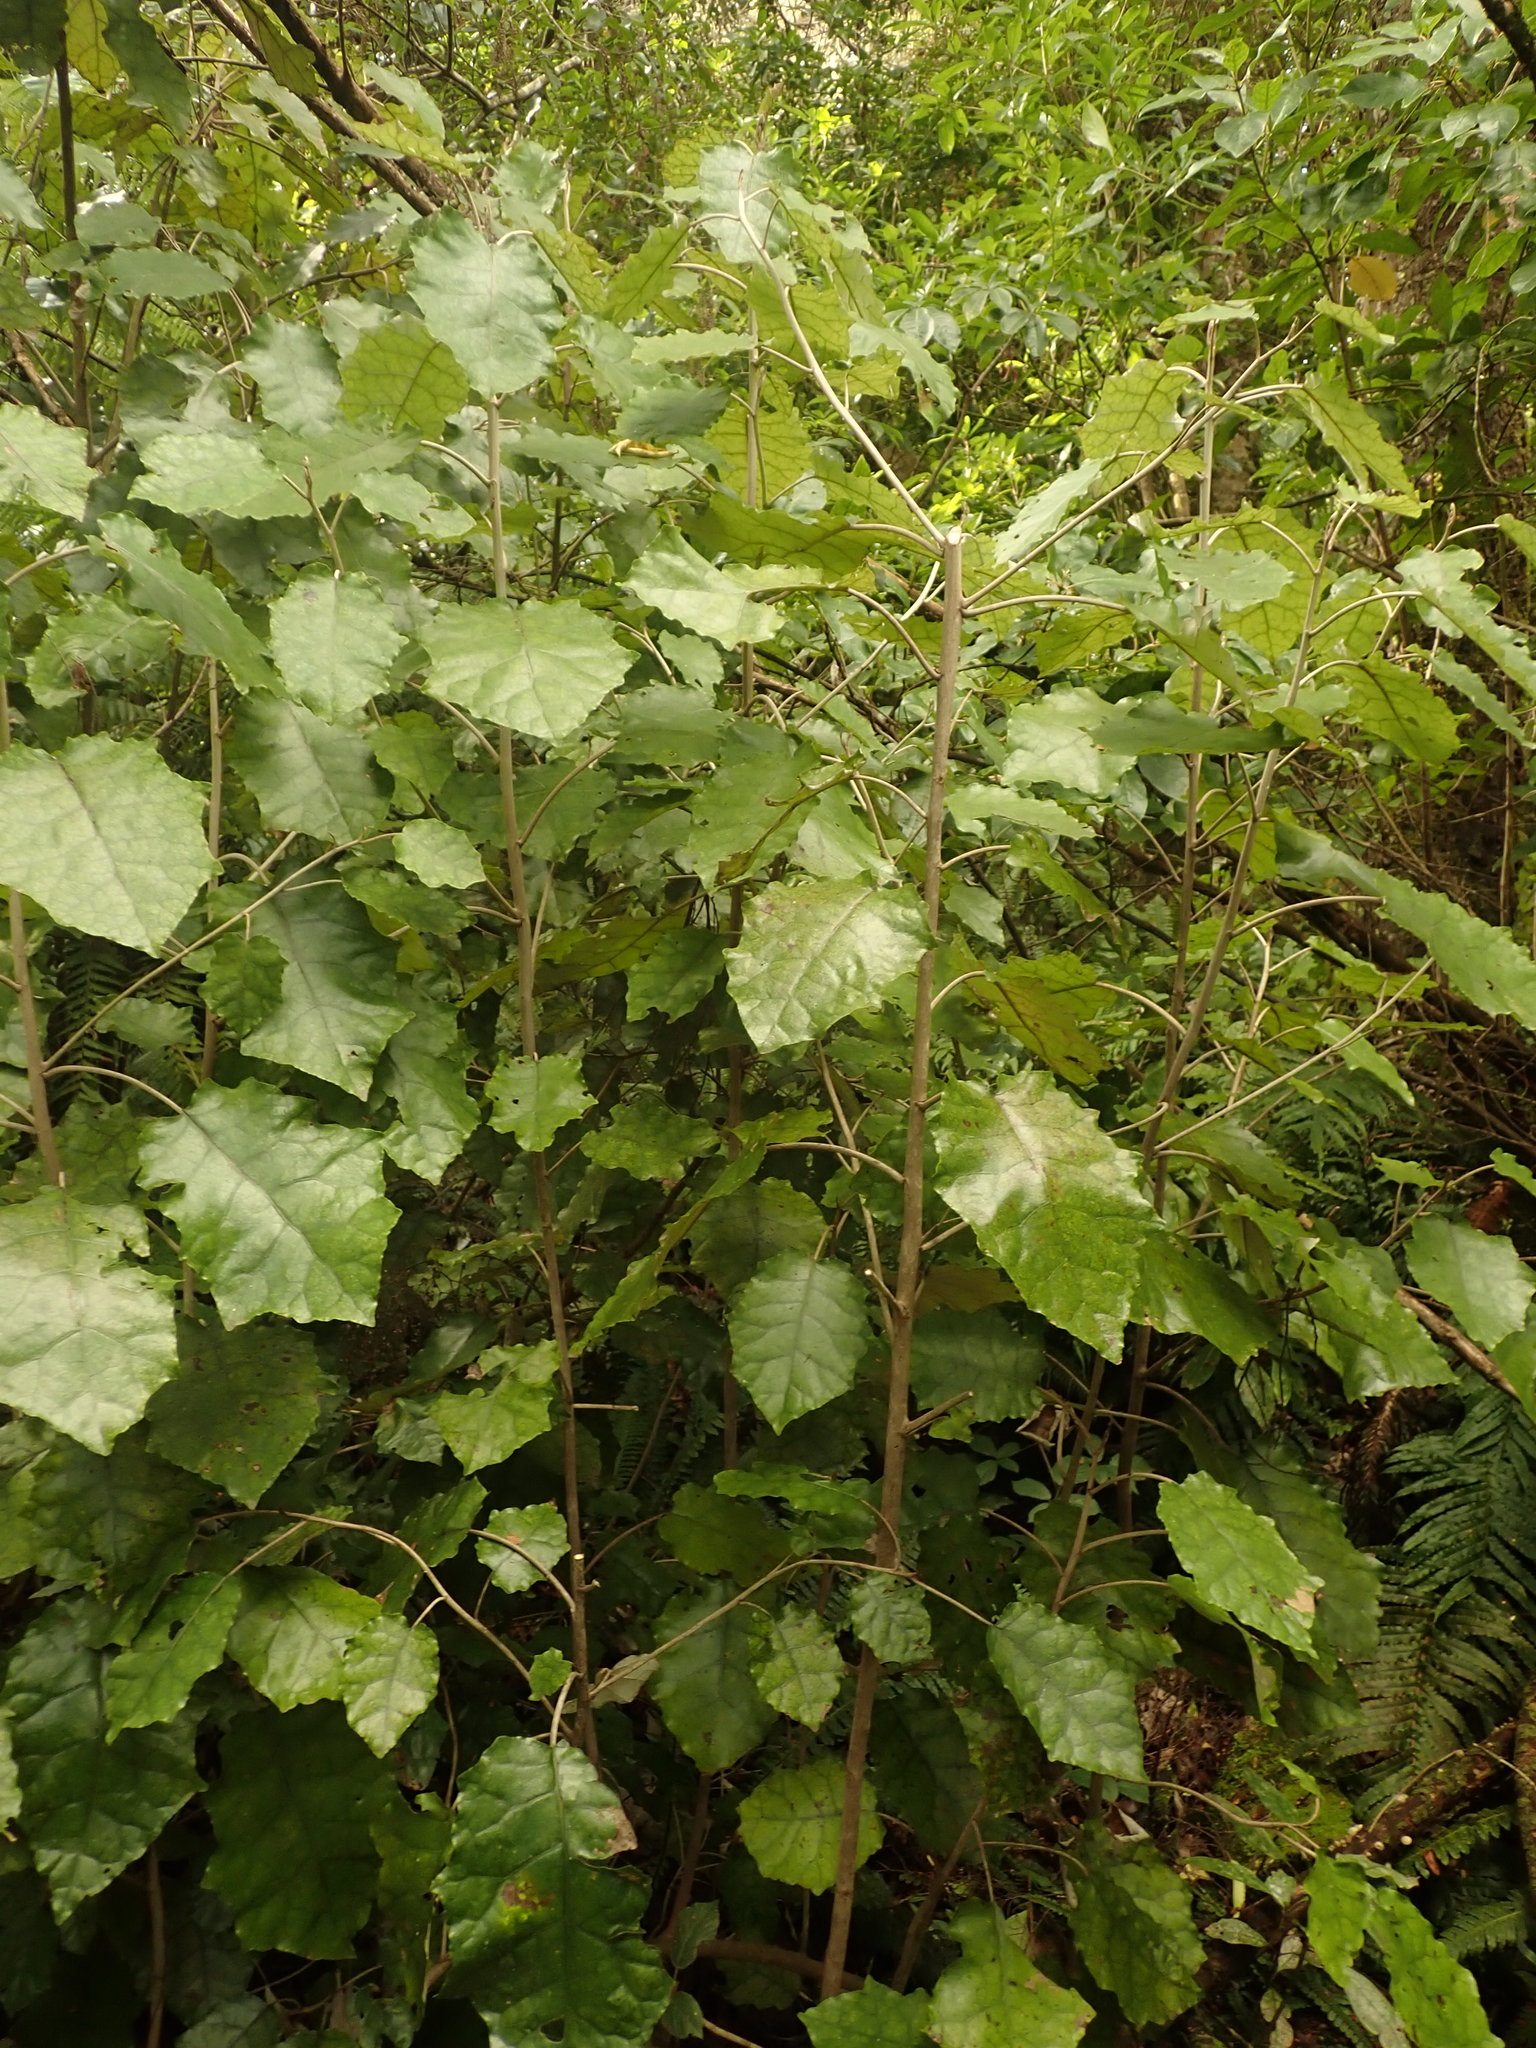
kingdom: Plantae
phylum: Tracheophyta
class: Magnoliopsida
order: Asterales
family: Asteraceae
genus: Brachyglottis
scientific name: Brachyglottis repanda
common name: Hedge ragwort
